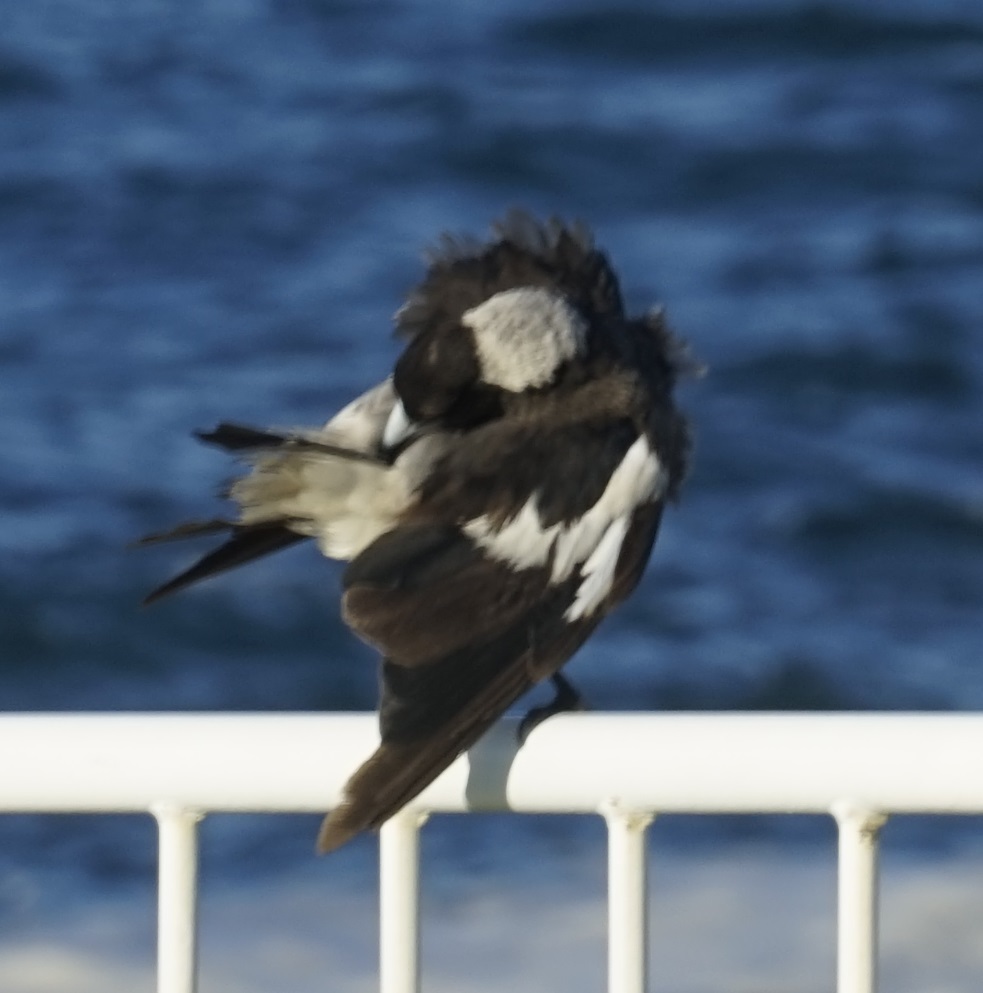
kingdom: Animalia
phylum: Chordata
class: Aves
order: Passeriformes
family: Cracticidae
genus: Gymnorhina
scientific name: Gymnorhina tibicen
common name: Australian magpie
